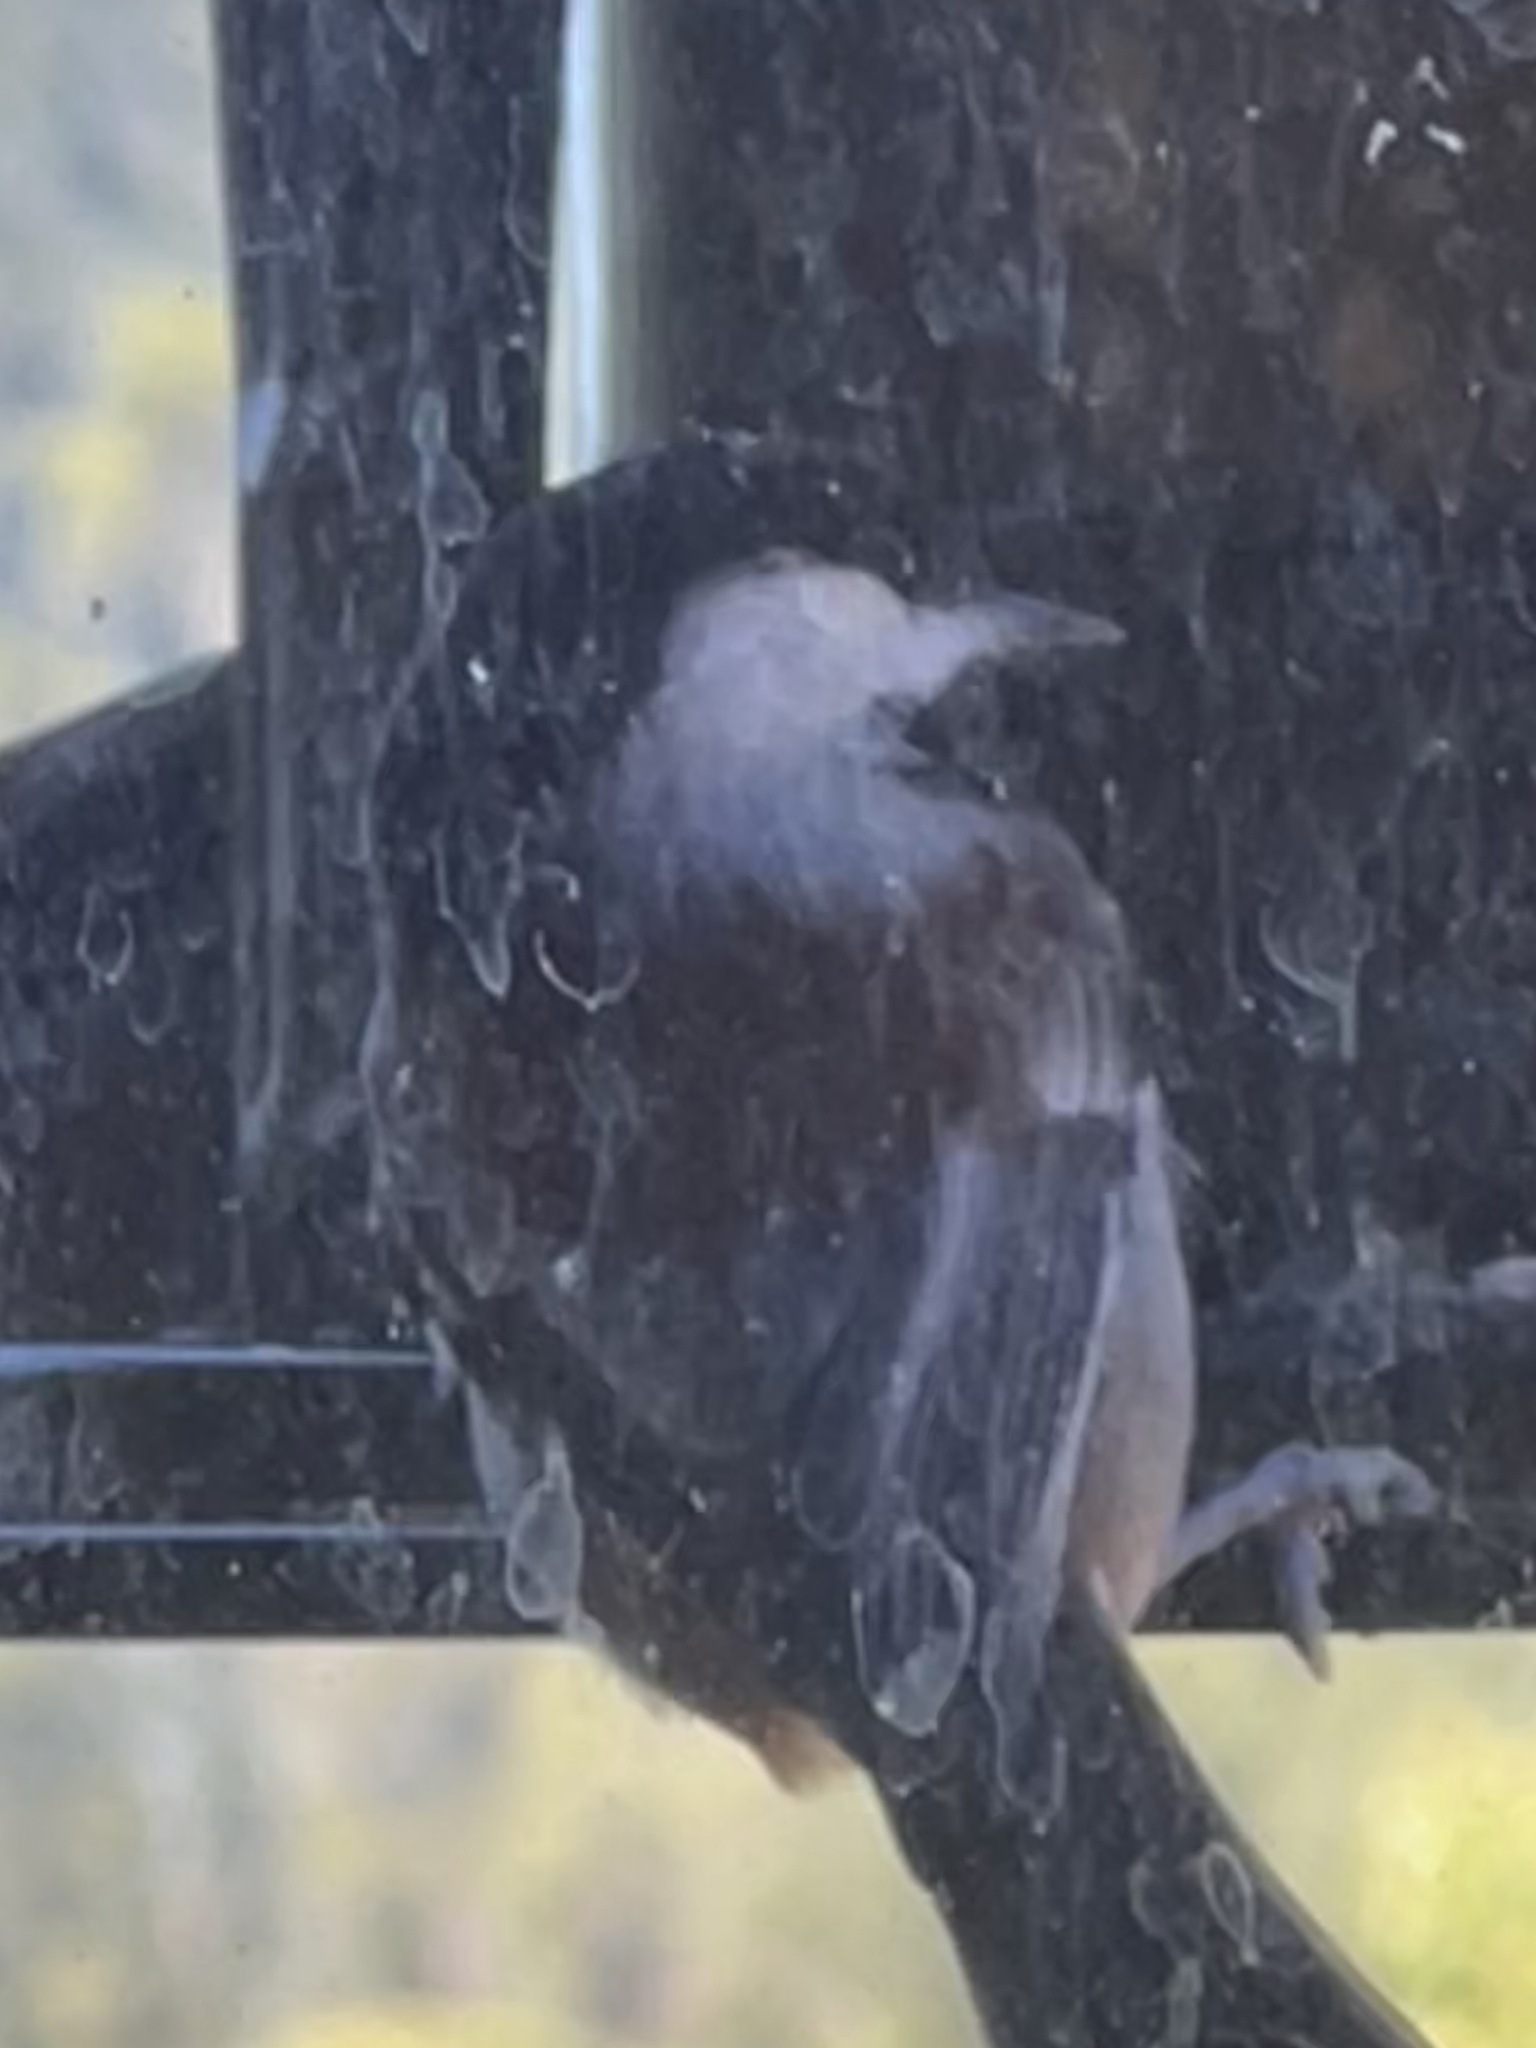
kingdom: Animalia
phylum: Chordata
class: Aves
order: Passeriformes
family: Paridae
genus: Poecile
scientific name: Poecile rufescens
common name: Chestnut-backed chickadee
